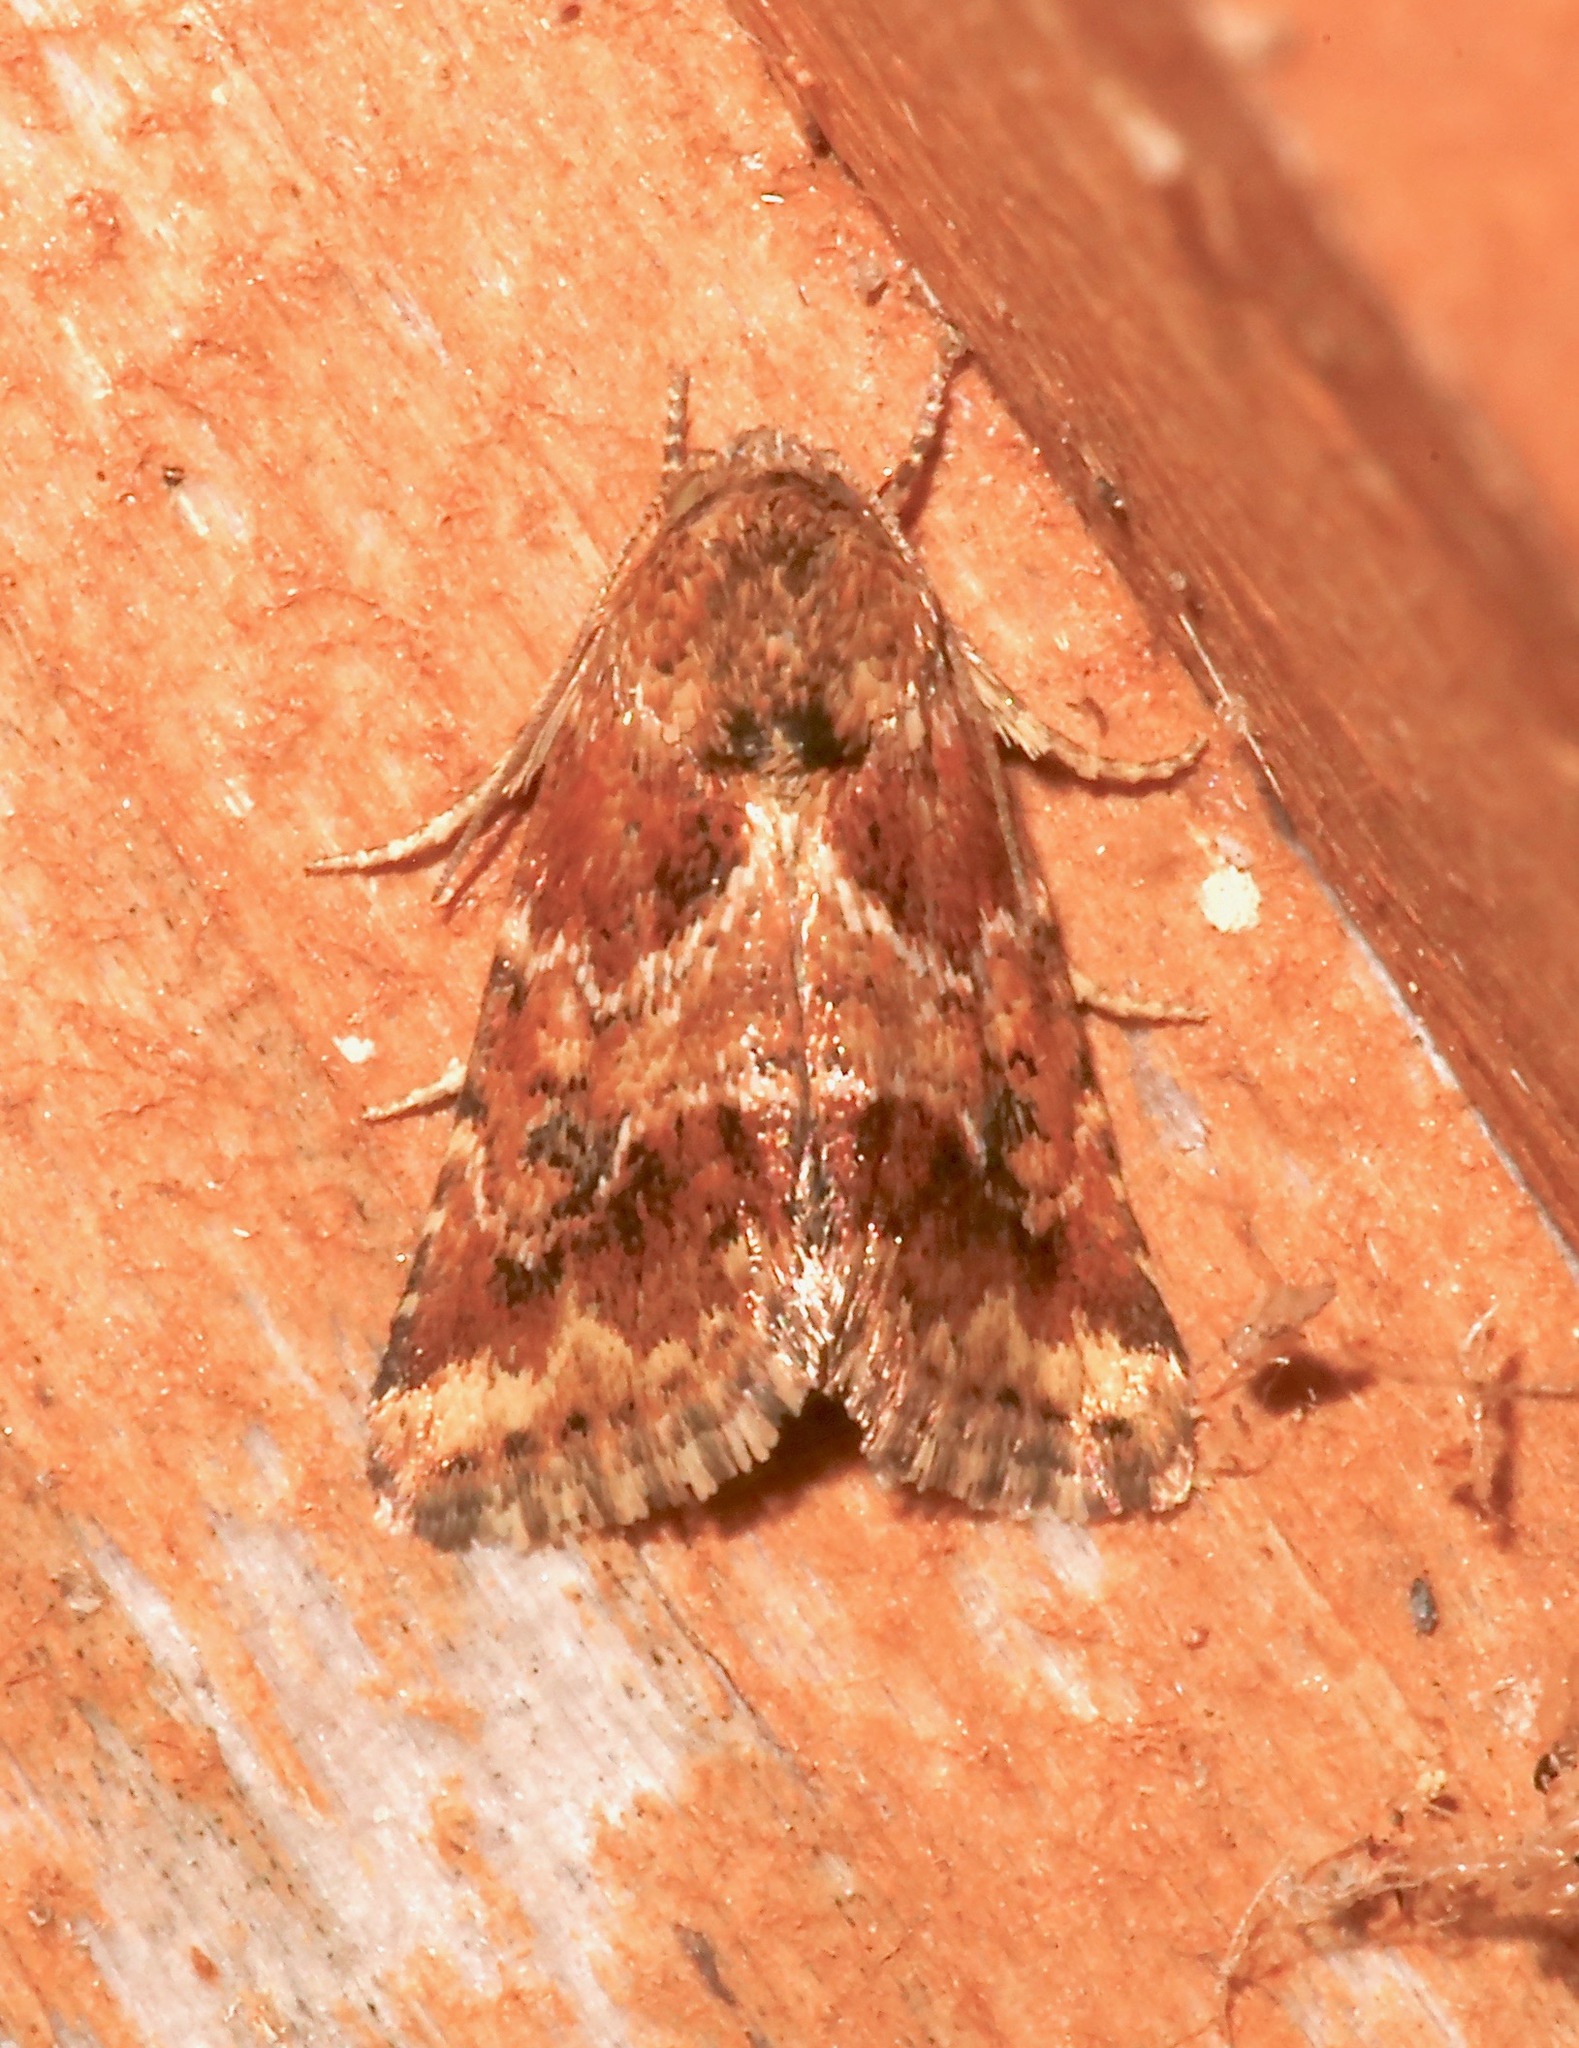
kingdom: Animalia
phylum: Arthropoda
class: Insecta
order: Lepidoptera
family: Noctuidae
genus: Schinia
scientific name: Schinia sordida
